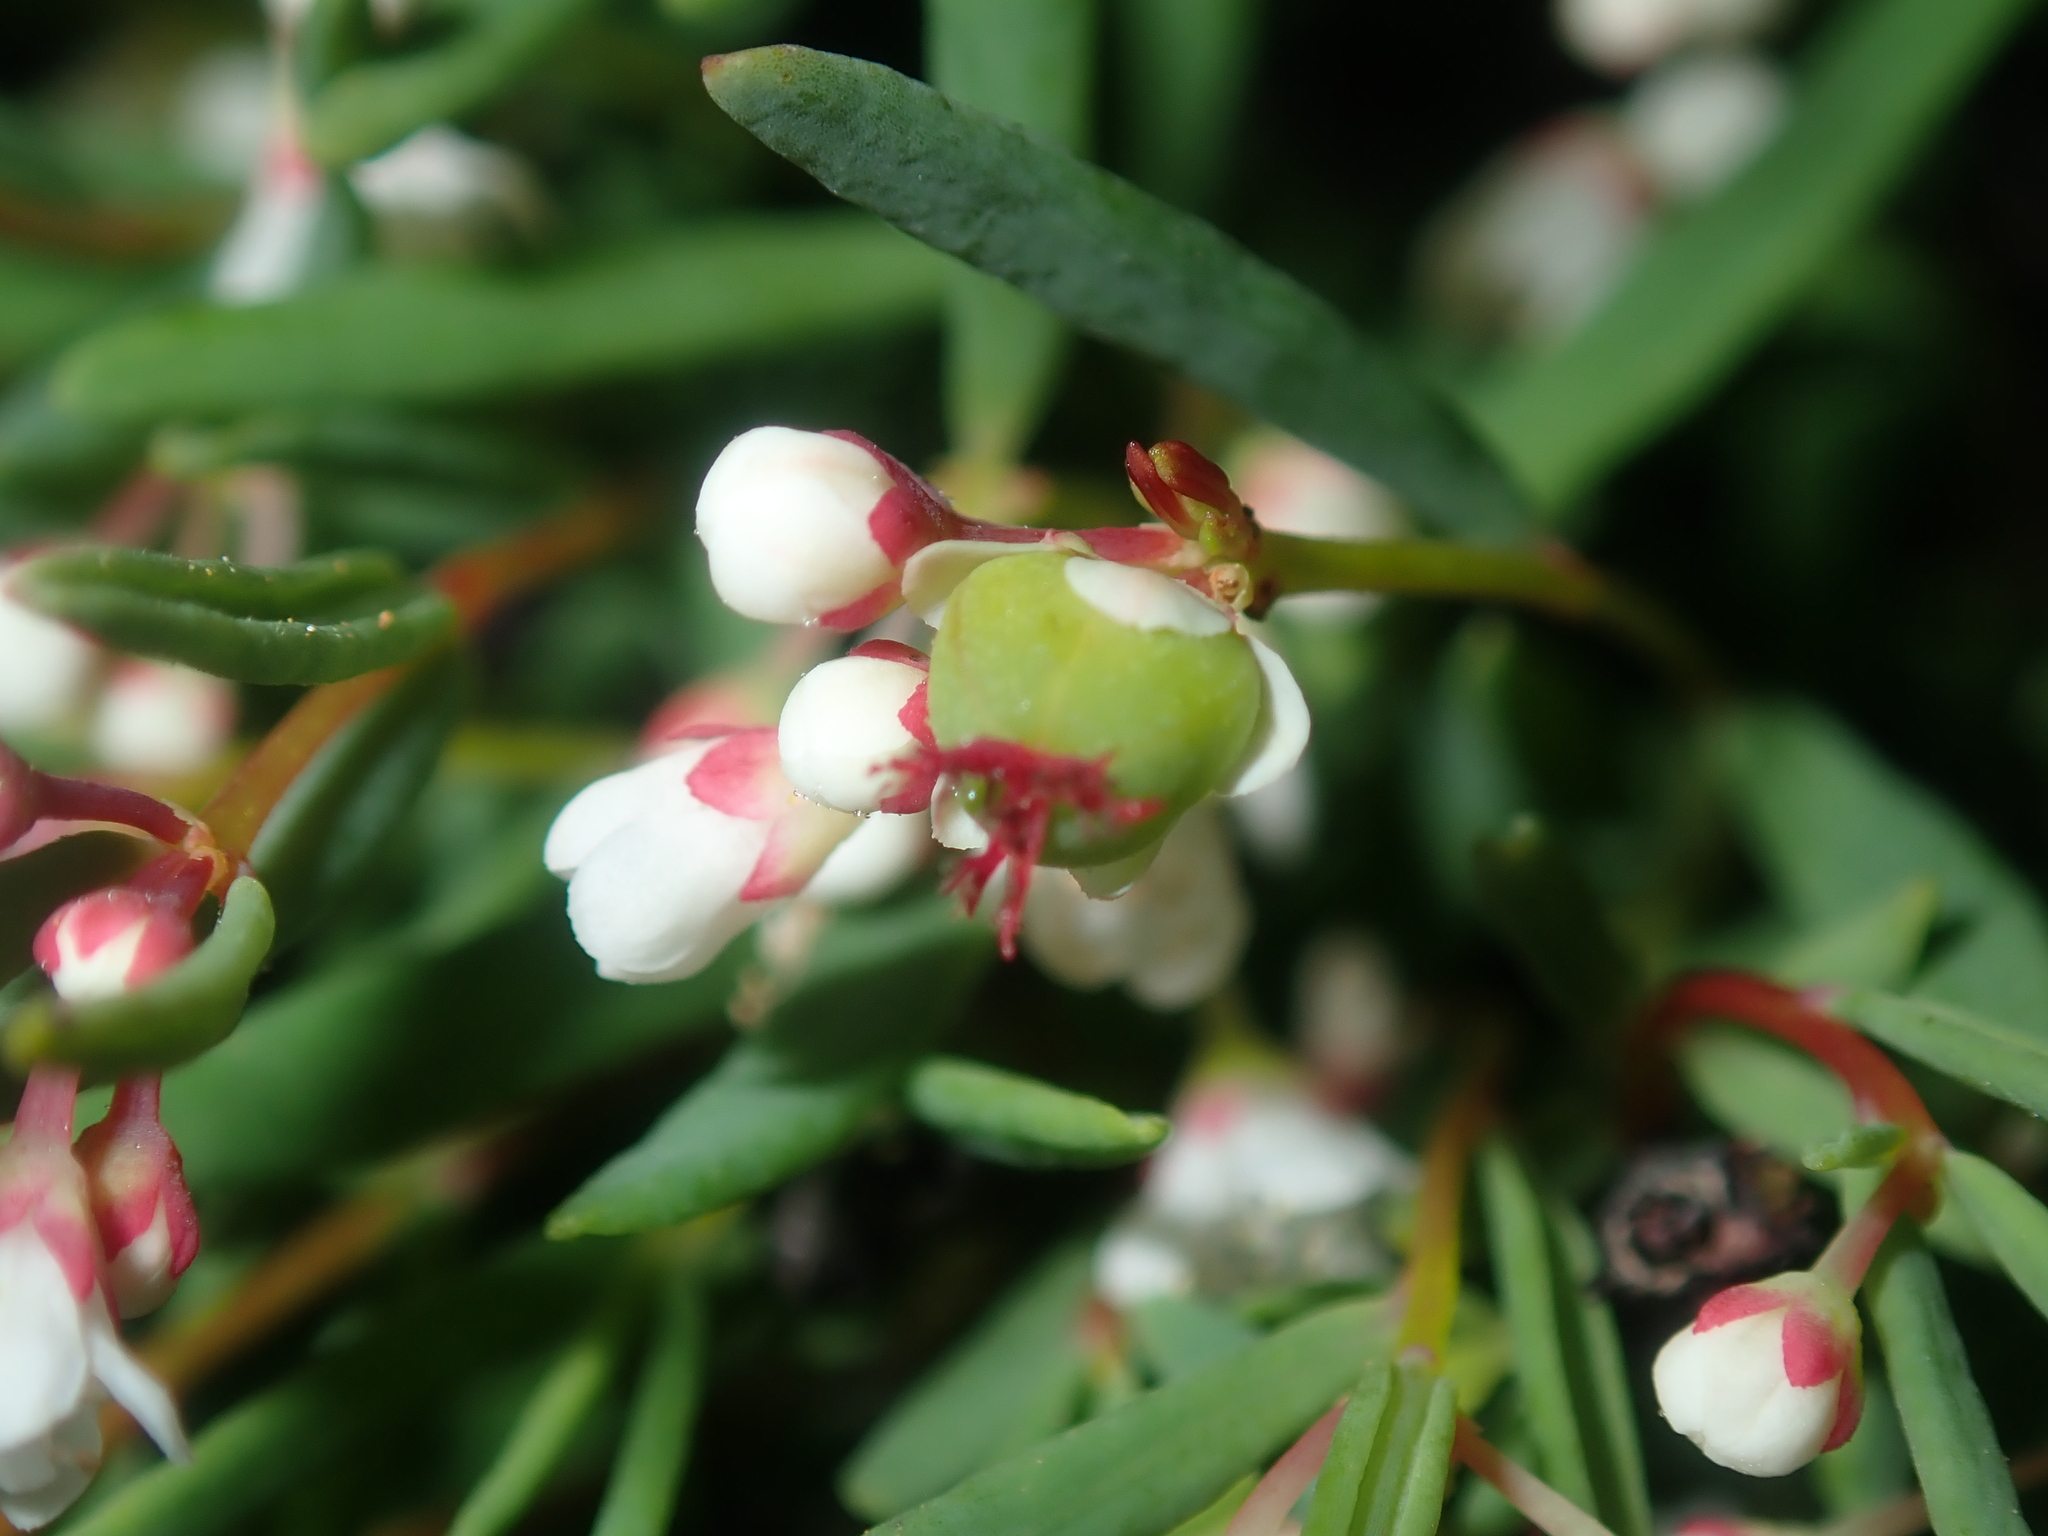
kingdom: Plantae
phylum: Tracheophyta
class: Magnoliopsida
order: Malpighiales
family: Euphorbiaceae
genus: Monotaxis
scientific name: Monotaxis bracteata
